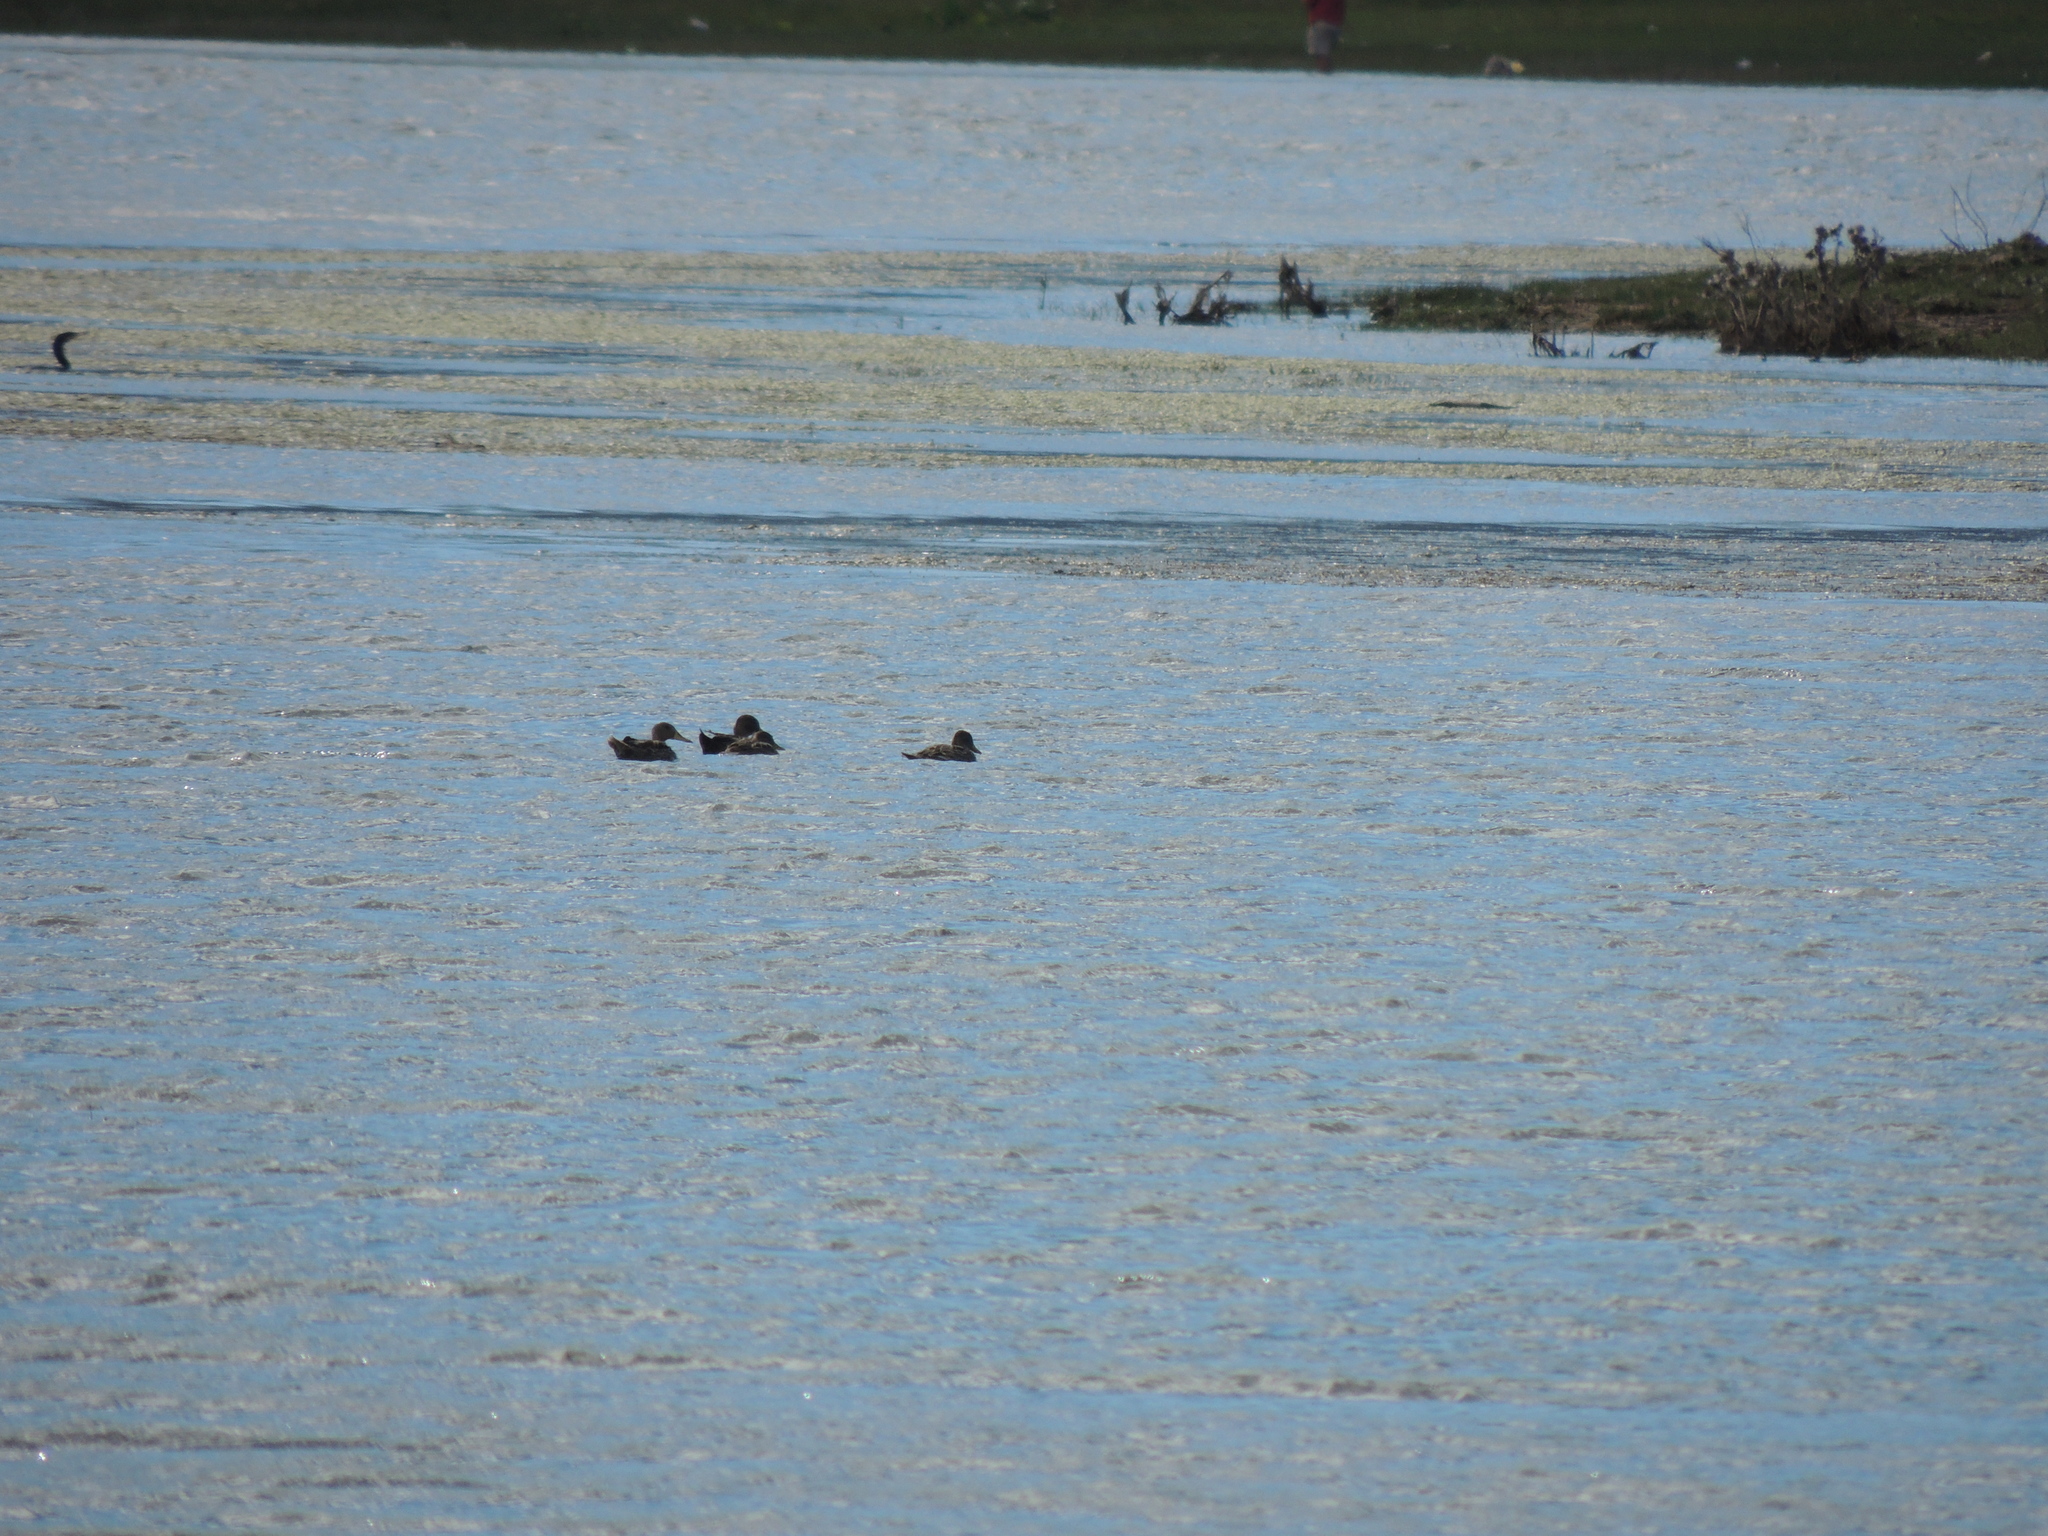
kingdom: Animalia
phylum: Chordata
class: Aves
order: Anseriformes
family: Anatidae
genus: Anas
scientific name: Anas georgica
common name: Yellow-billed pintail
